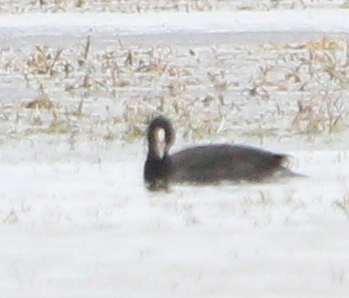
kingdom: Animalia
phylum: Chordata
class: Aves
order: Gruiformes
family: Rallidae
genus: Fulica
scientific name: Fulica atra
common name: Eurasian coot
